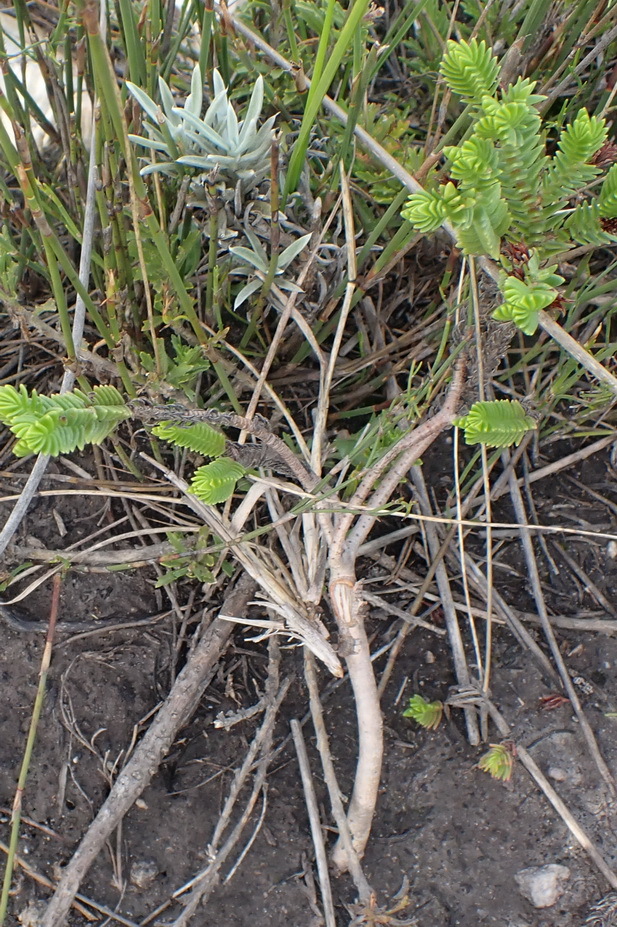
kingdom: Plantae
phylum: Tracheophyta
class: Magnoliopsida
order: Saxifragales
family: Crassulaceae
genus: Crassula
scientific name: Crassula ericoides
